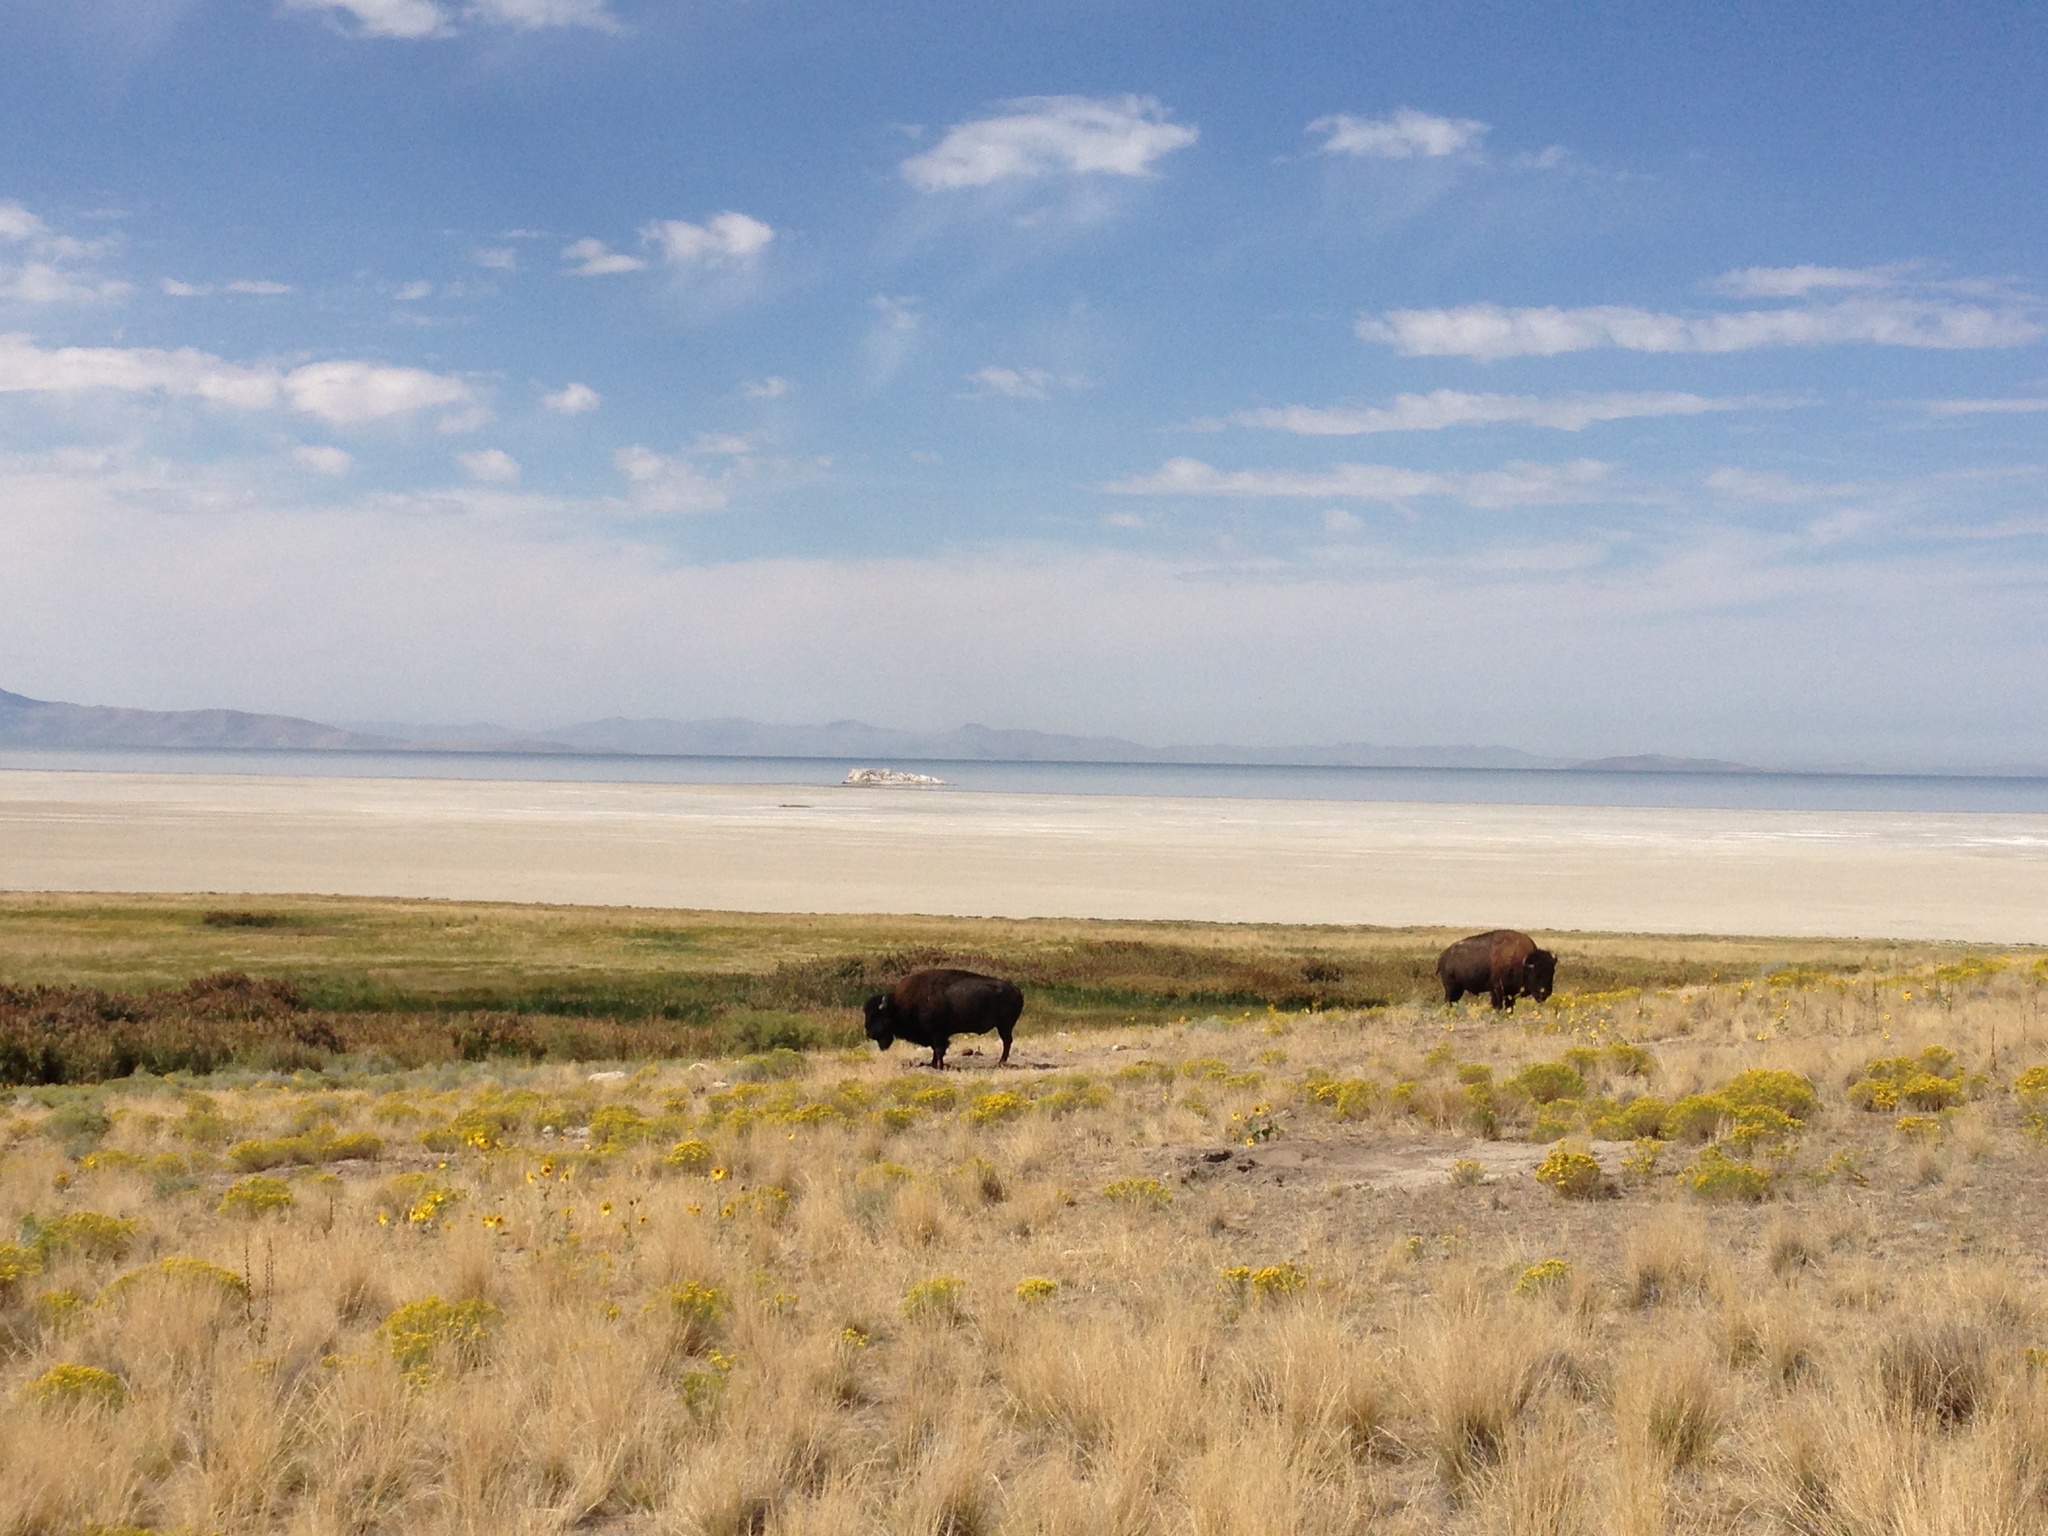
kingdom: Animalia
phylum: Chordata
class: Mammalia
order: Artiodactyla
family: Bovidae
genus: Bison
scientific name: Bison bison
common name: American bison
